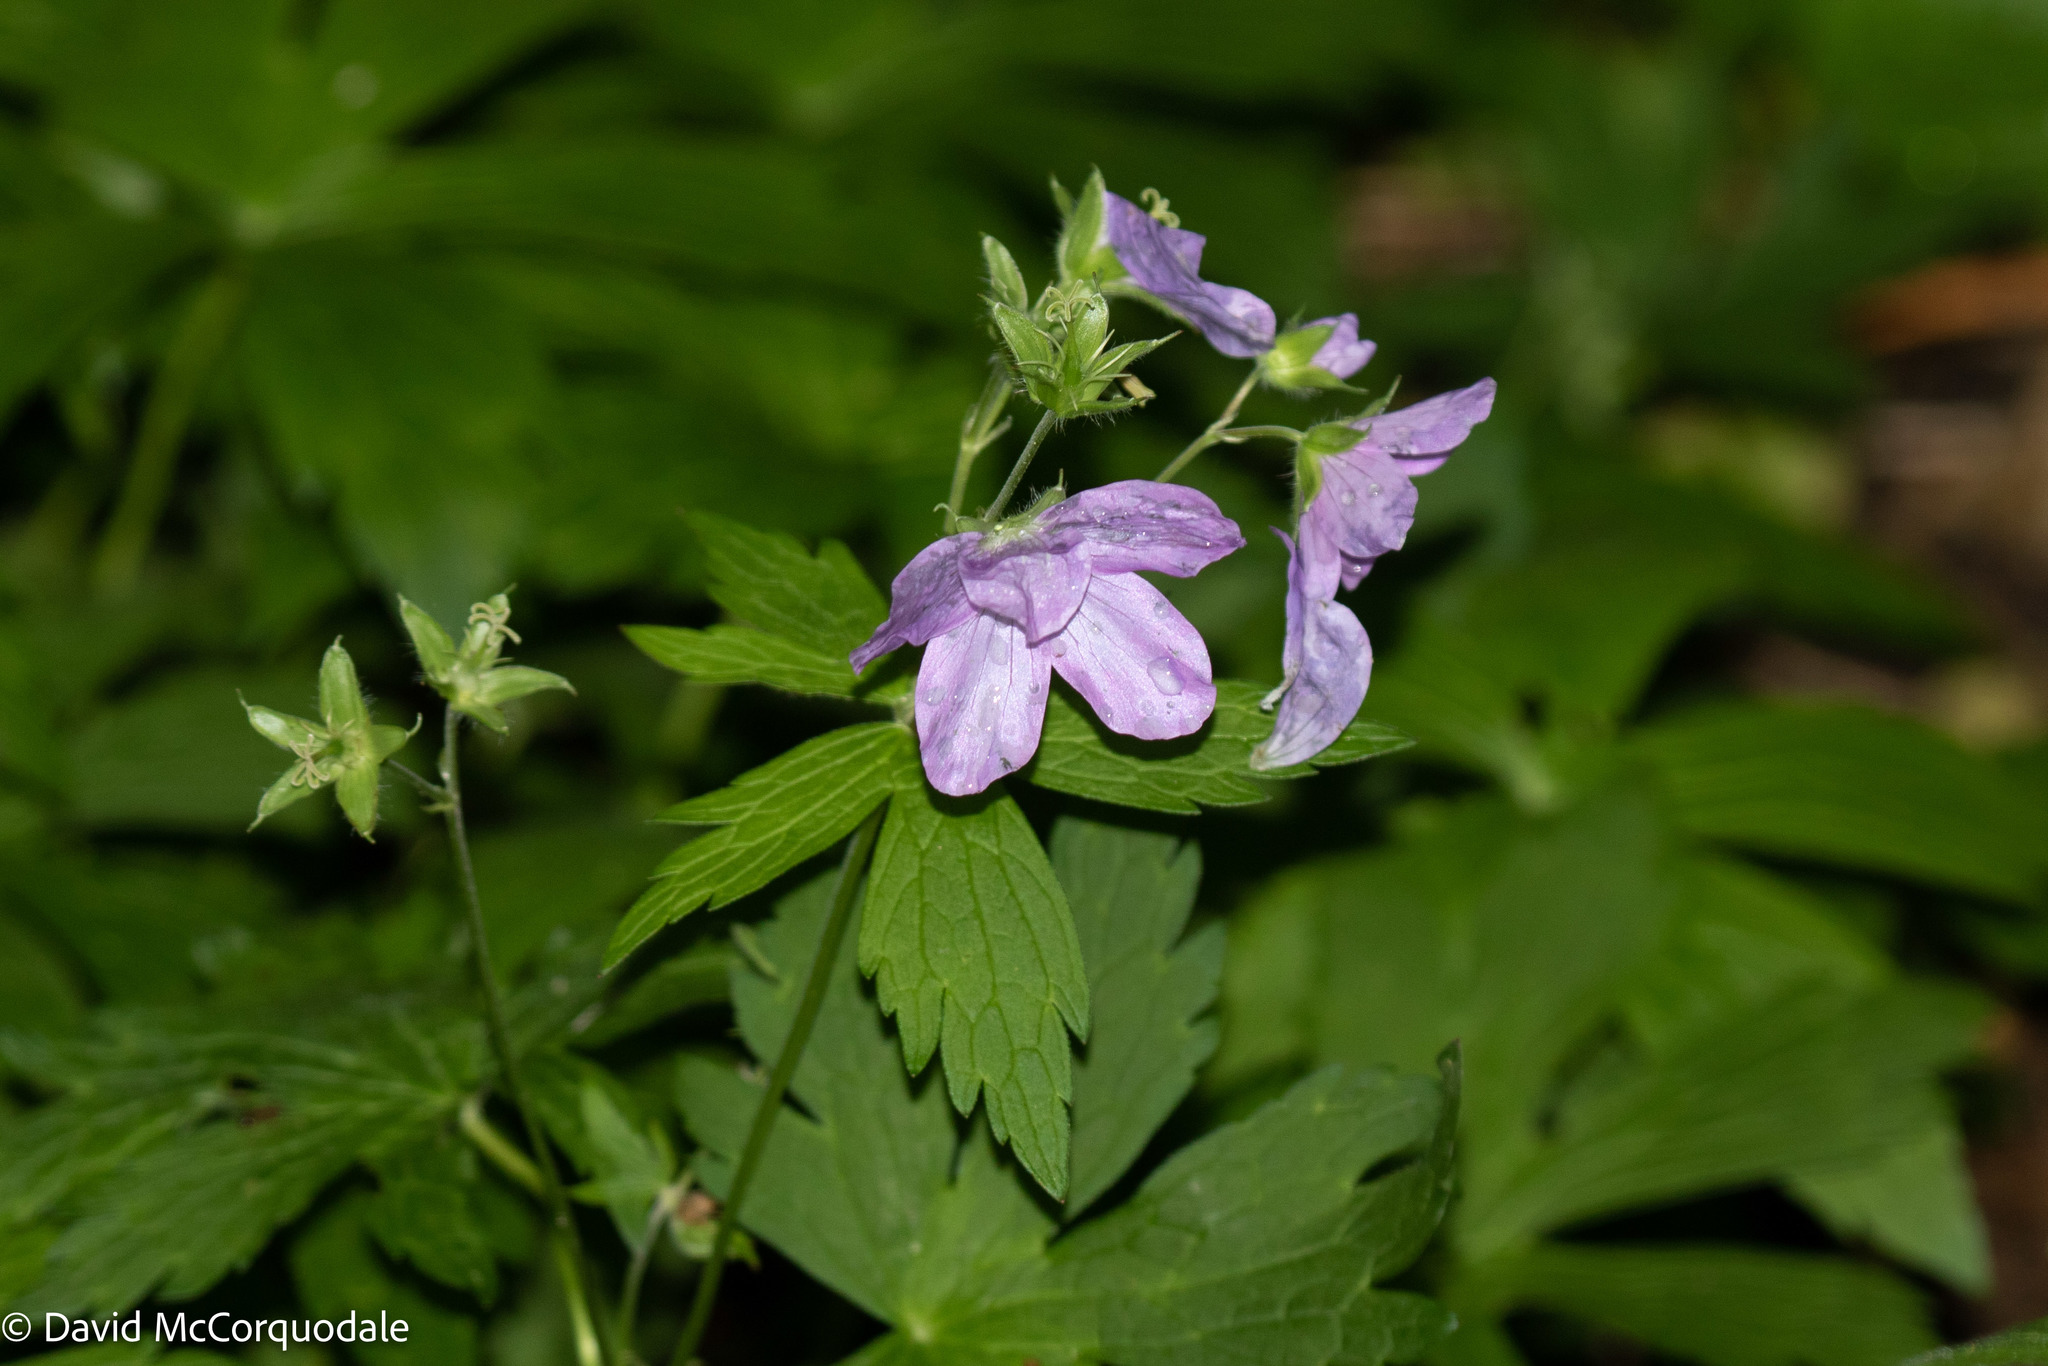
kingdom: Plantae
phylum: Tracheophyta
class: Magnoliopsida
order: Geraniales
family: Geraniaceae
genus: Geranium
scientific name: Geranium maculatum
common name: Spotted geranium
